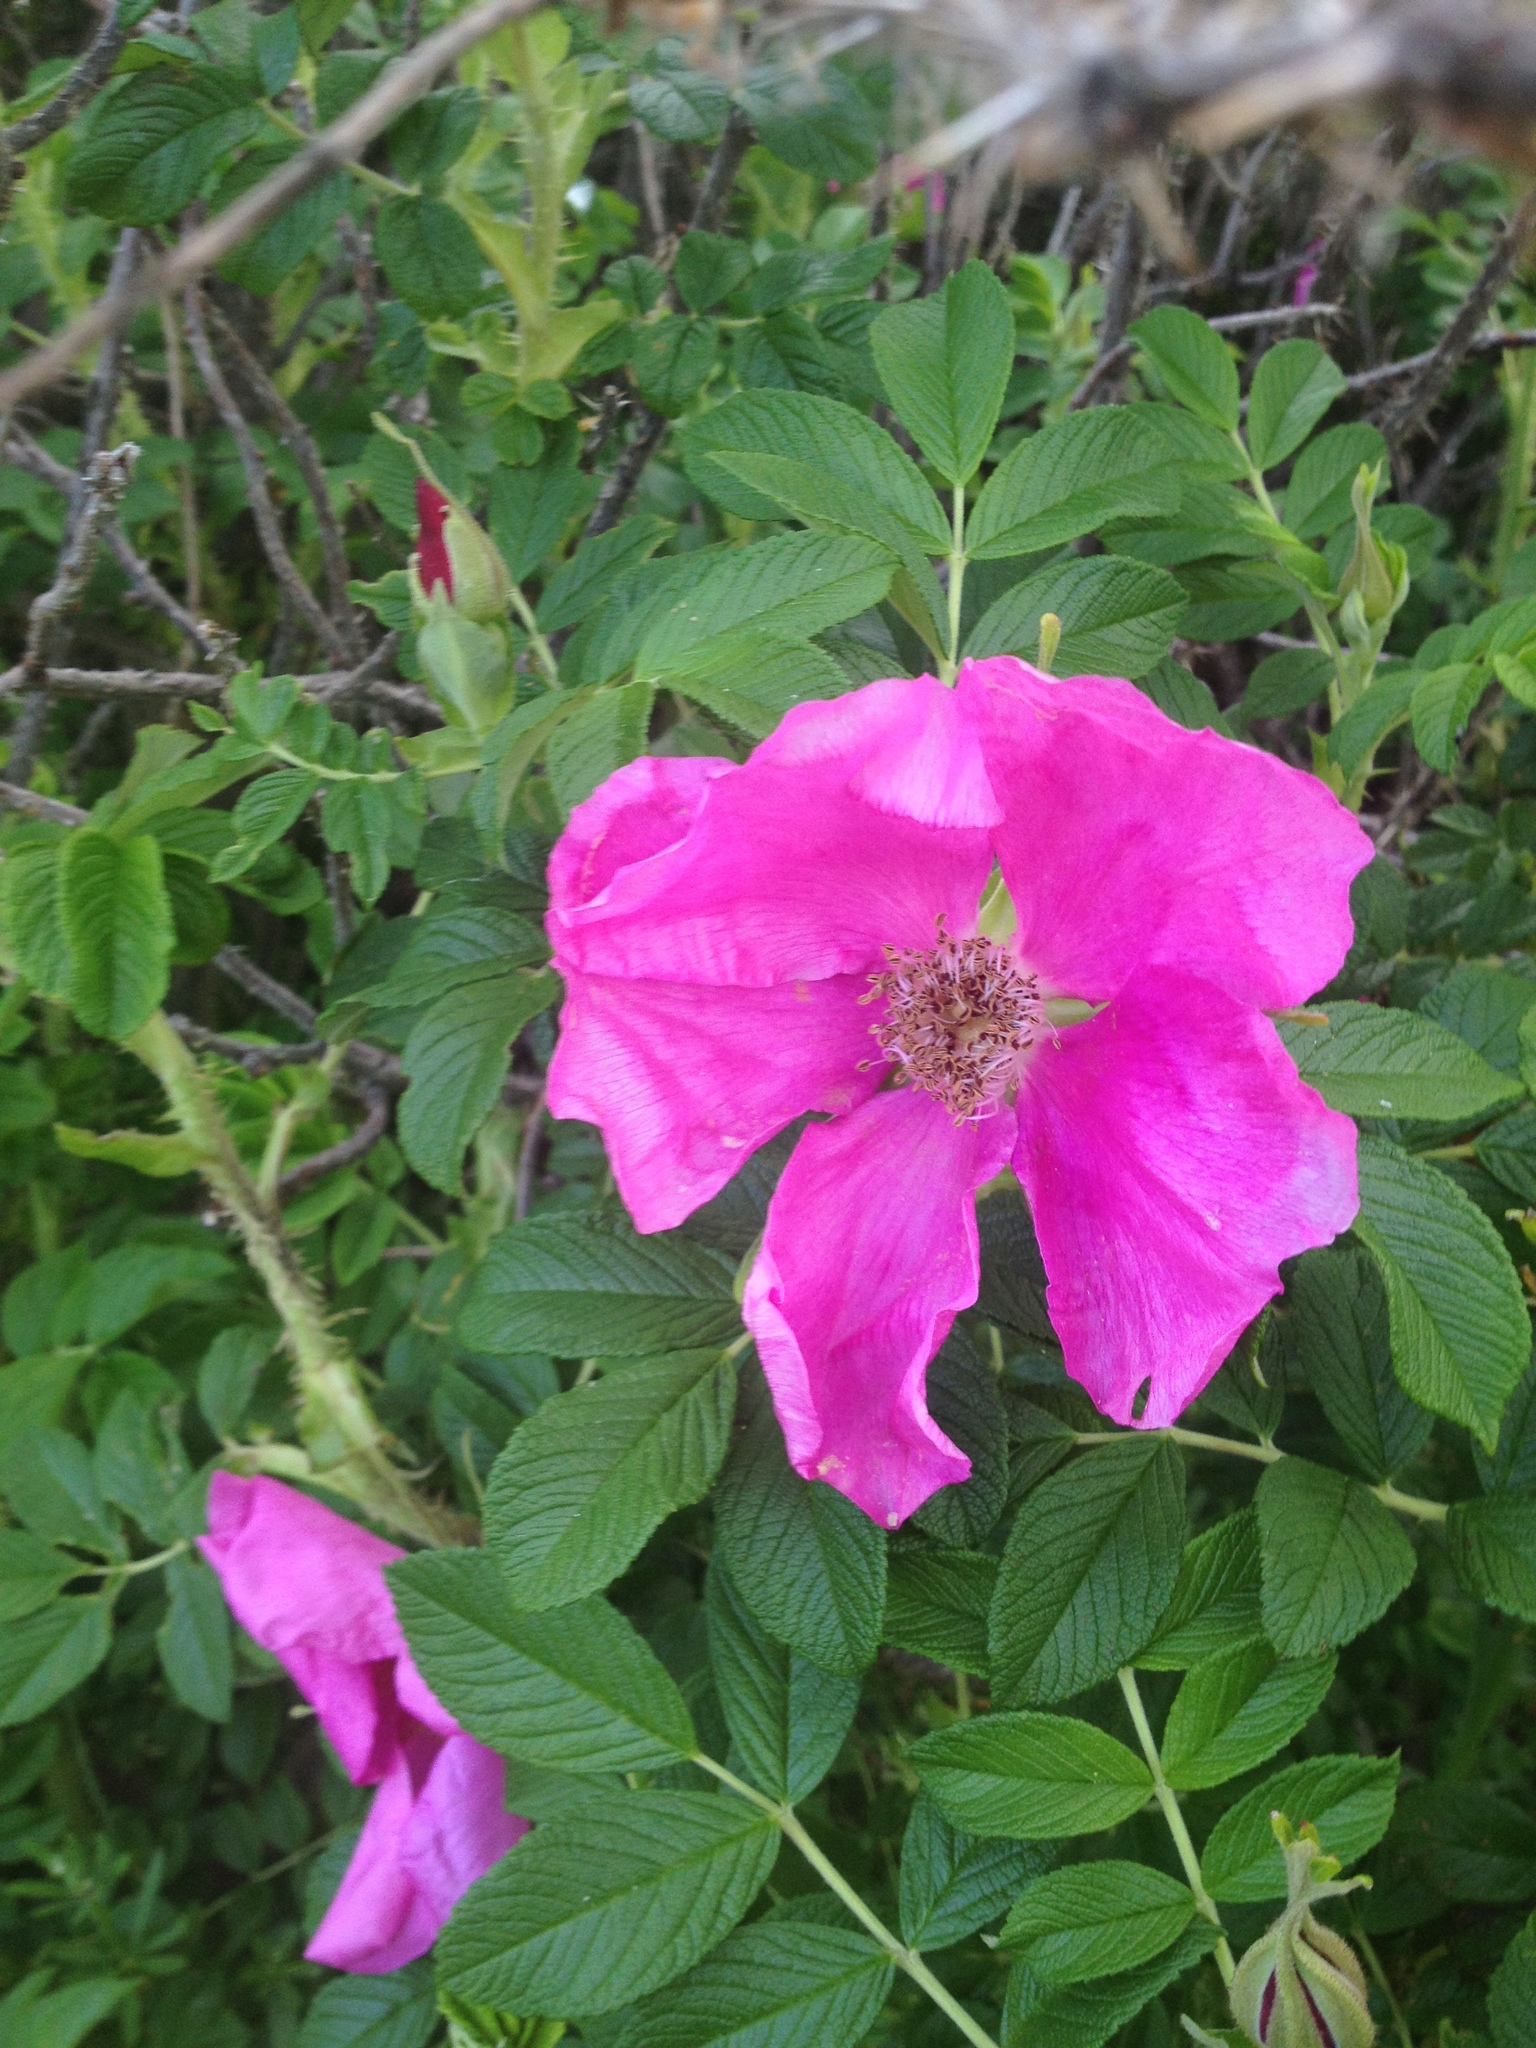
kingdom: Plantae
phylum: Tracheophyta
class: Magnoliopsida
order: Rosales
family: Rosaceae
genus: Rosa
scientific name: Rosa rugosa
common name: Japanese rose
